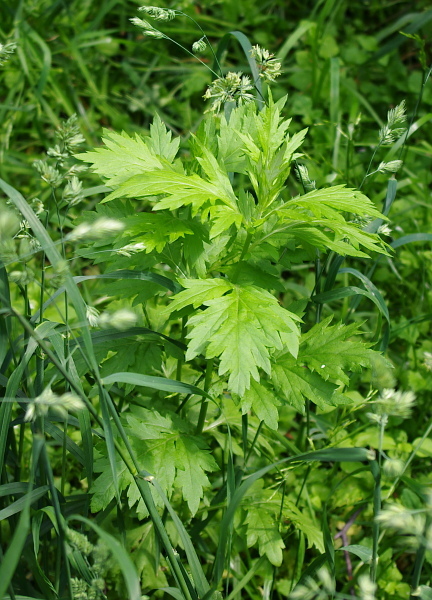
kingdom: Plantae
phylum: Tracheophyta
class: Magnoliopsida
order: Asterales
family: Asteraceae
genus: Artemisia
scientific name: Artemisia vulgaris
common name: Mugwort
